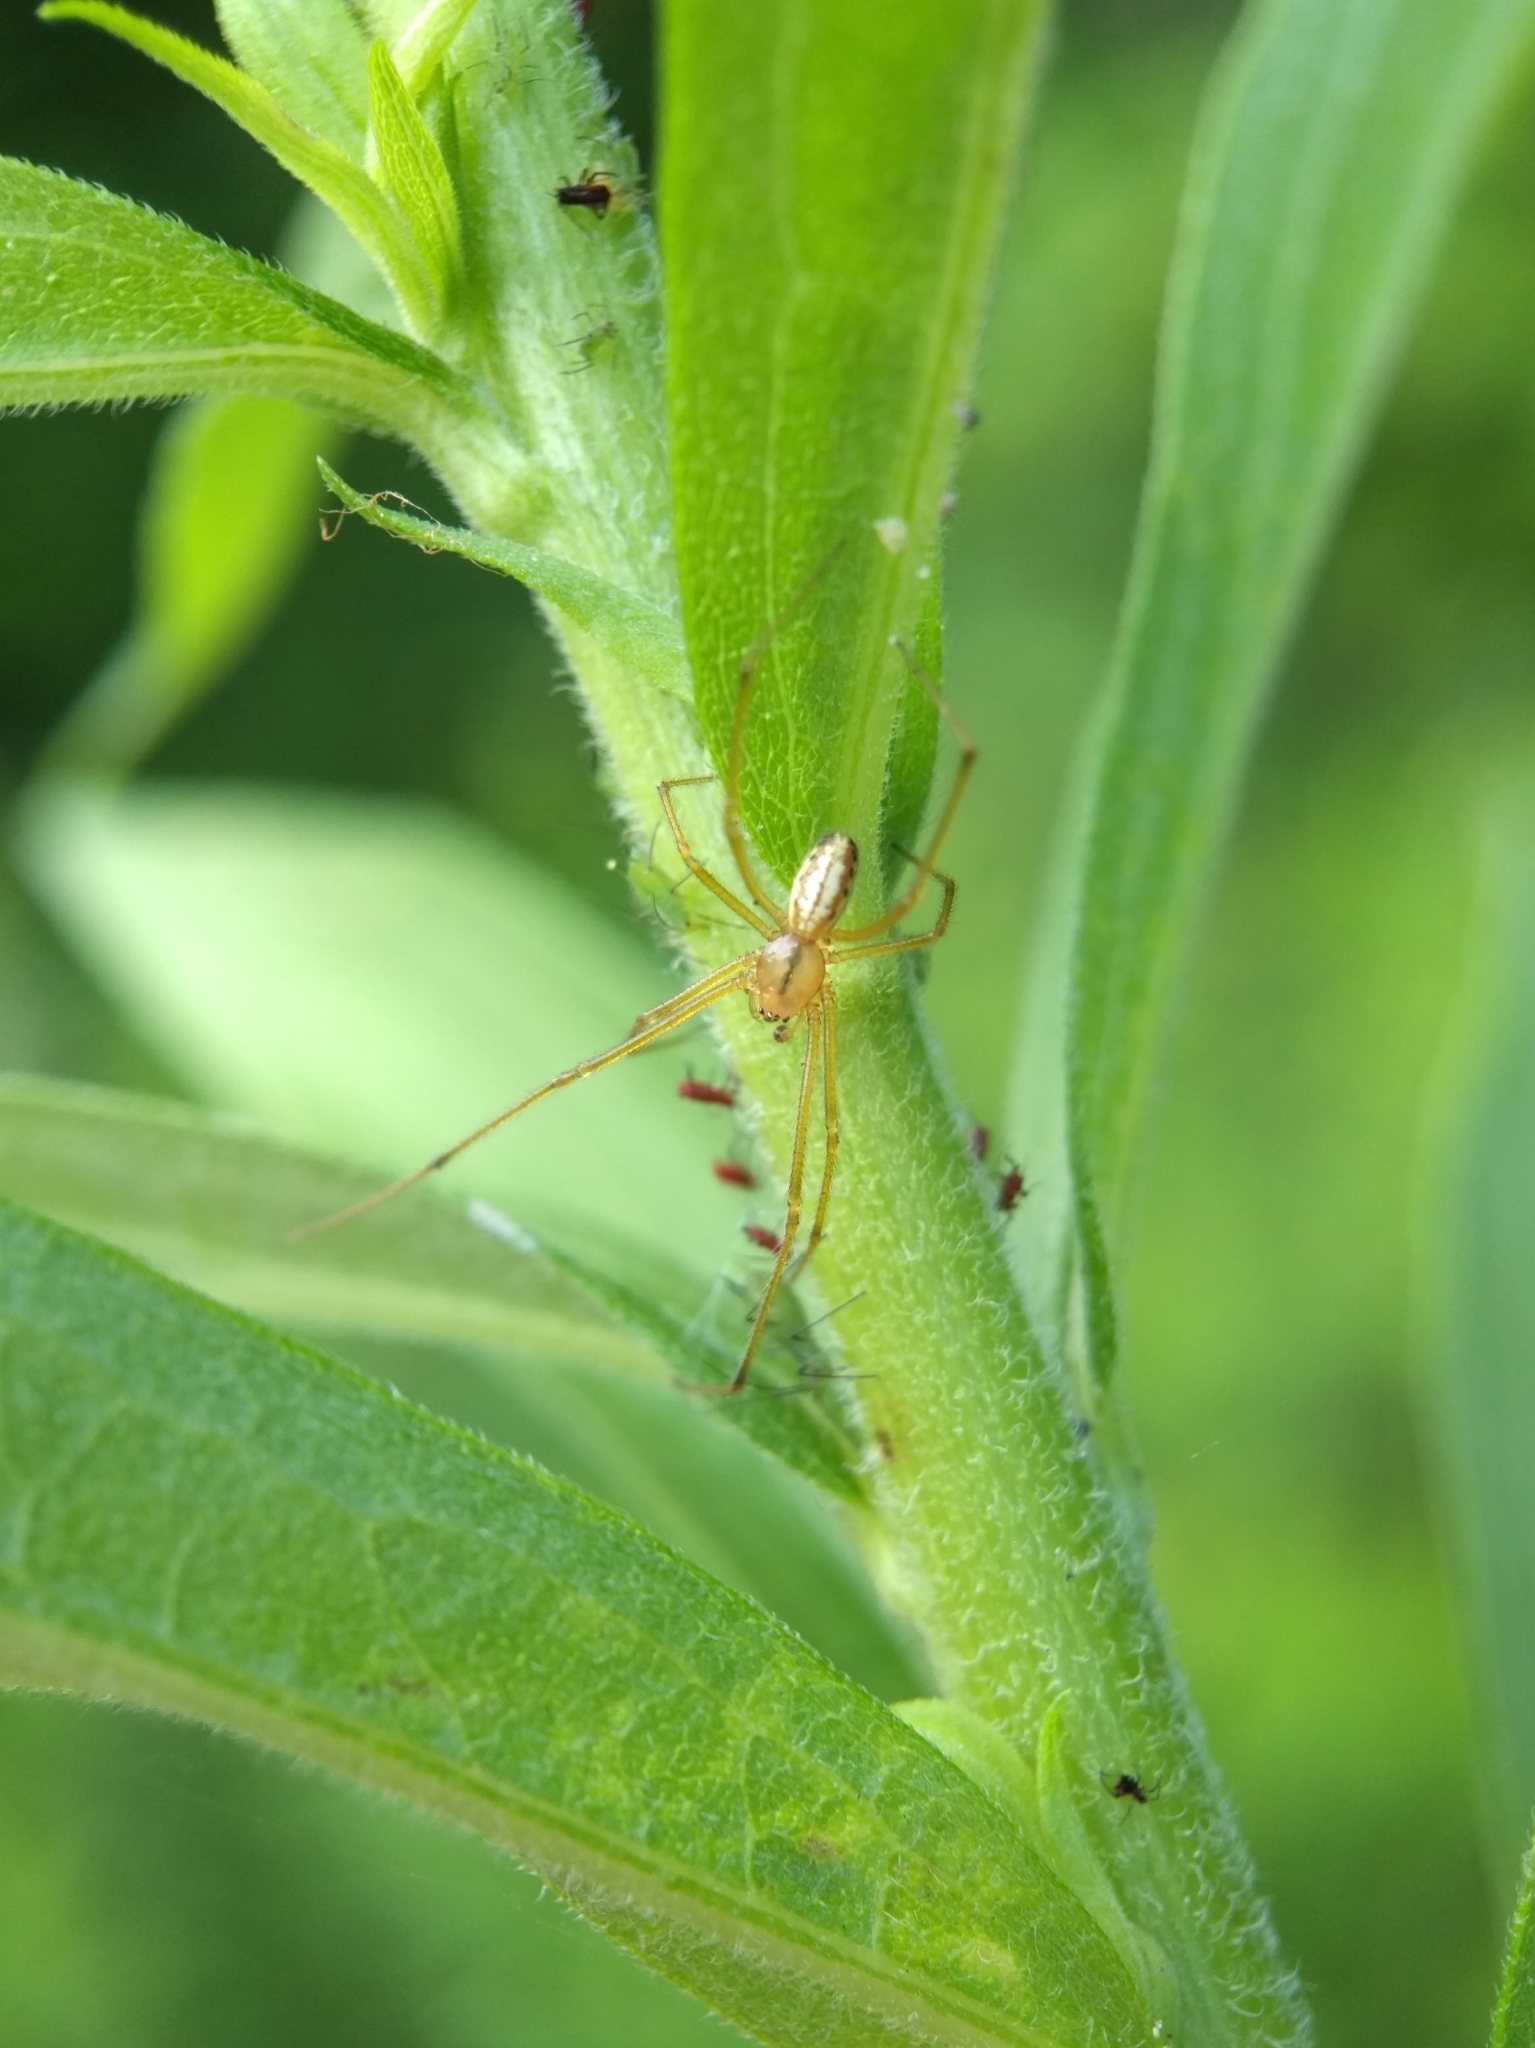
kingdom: Animalia
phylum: Arthropoda
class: Arachnida
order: Araneae
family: Theridiidae
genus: Enoplognatha
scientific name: Enoplognatha ovata
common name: Common candy-striped spider
